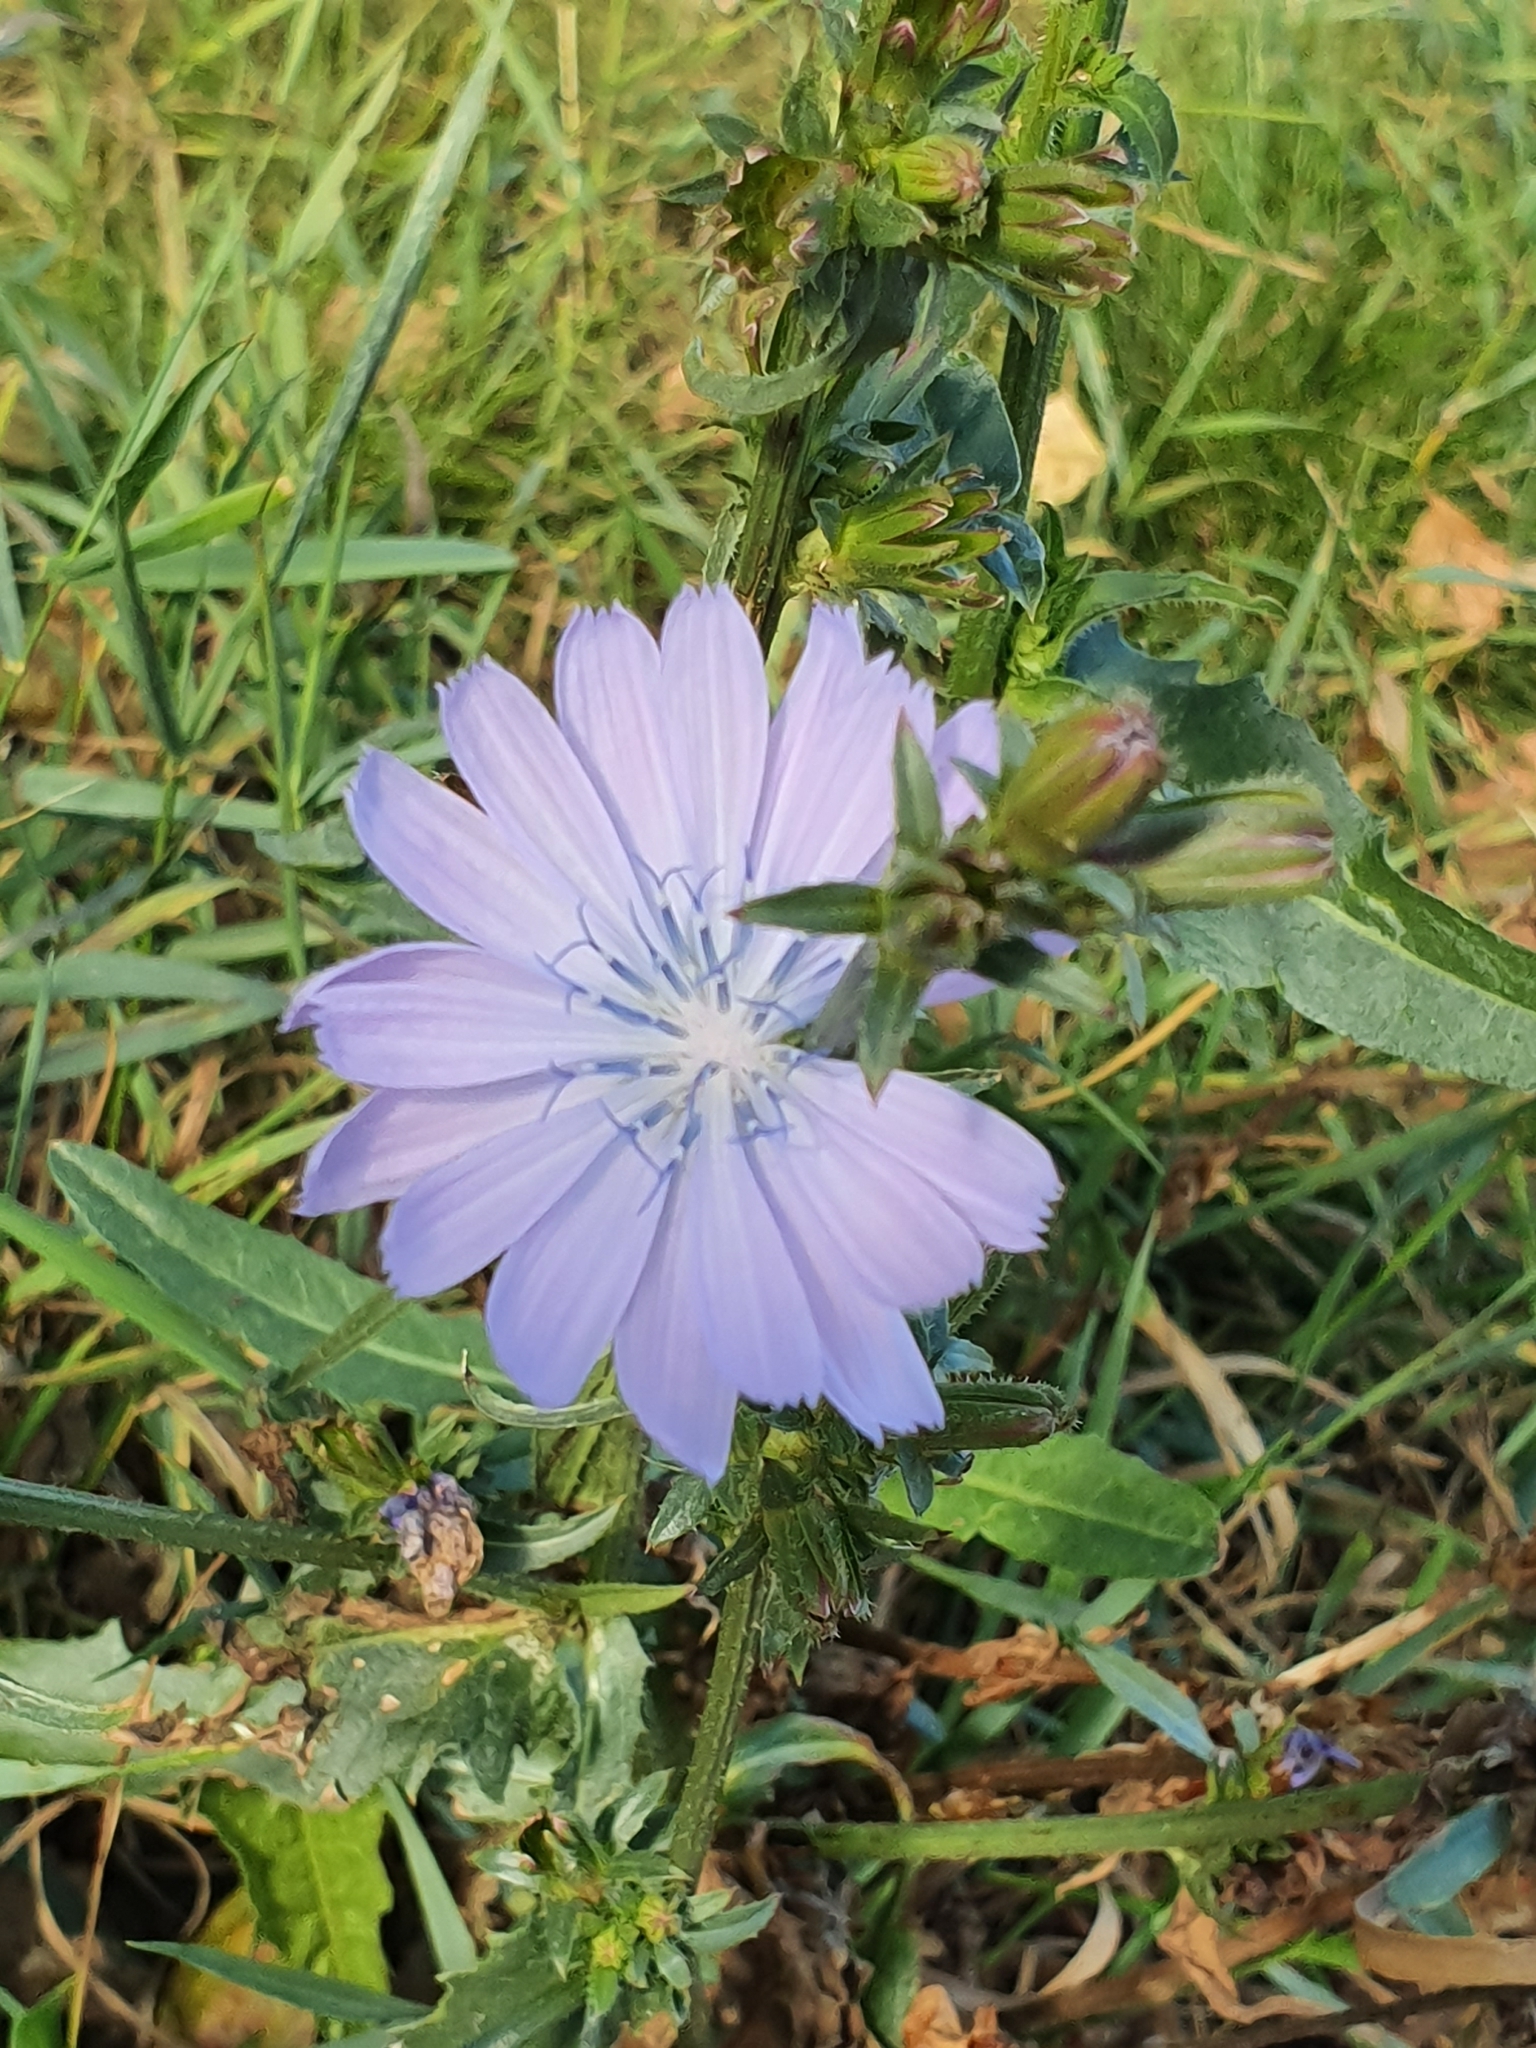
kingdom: Plantae
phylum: Tracheophyta
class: Magnoliopsida
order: Asterales
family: Asteraceae
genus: Cichorium
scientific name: Cichorium intybus
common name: Chicory
